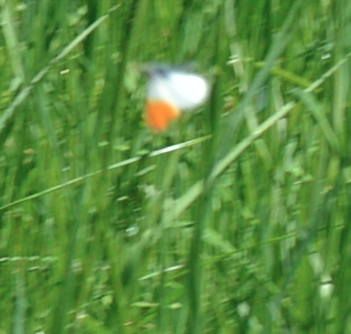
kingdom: Animalia
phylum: Arthropoda
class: Insecta
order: Lepidoptera
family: Pieridae
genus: Anthocharis
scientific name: Anthocharis cardamines
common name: Orange-tip
